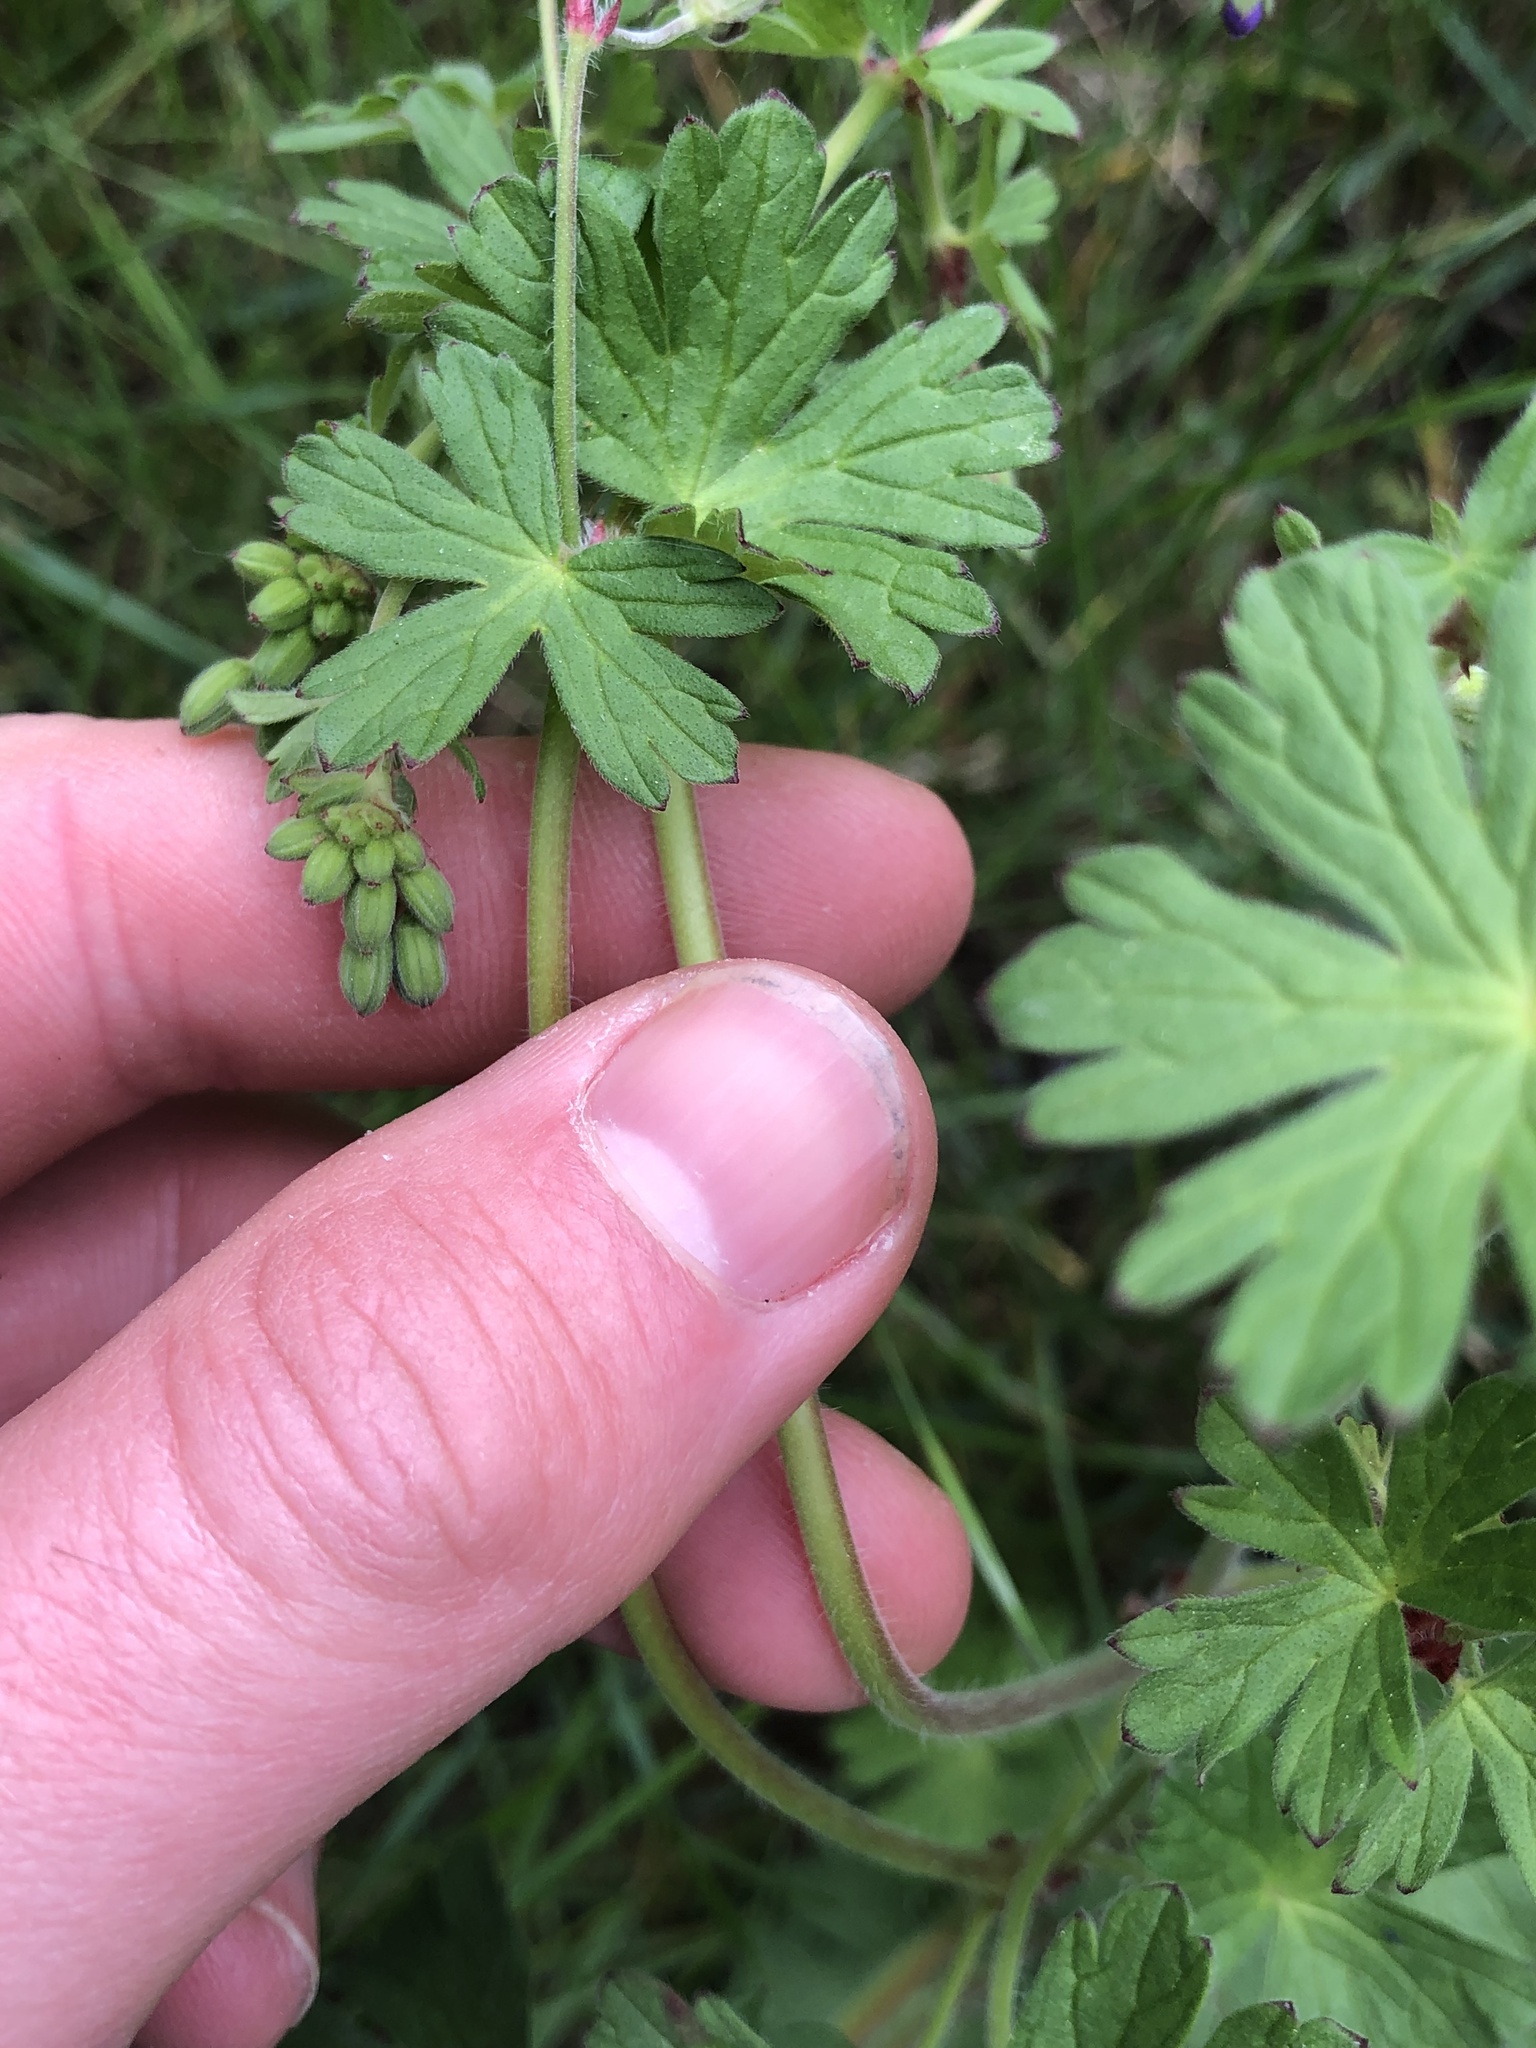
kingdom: Plantae
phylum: Tracheophyta
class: Magnoliopsida
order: Geraniales
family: Geraniaceae
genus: Geranium
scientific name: Geranium pyrenaicum
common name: Hedgerow crane's-bill
